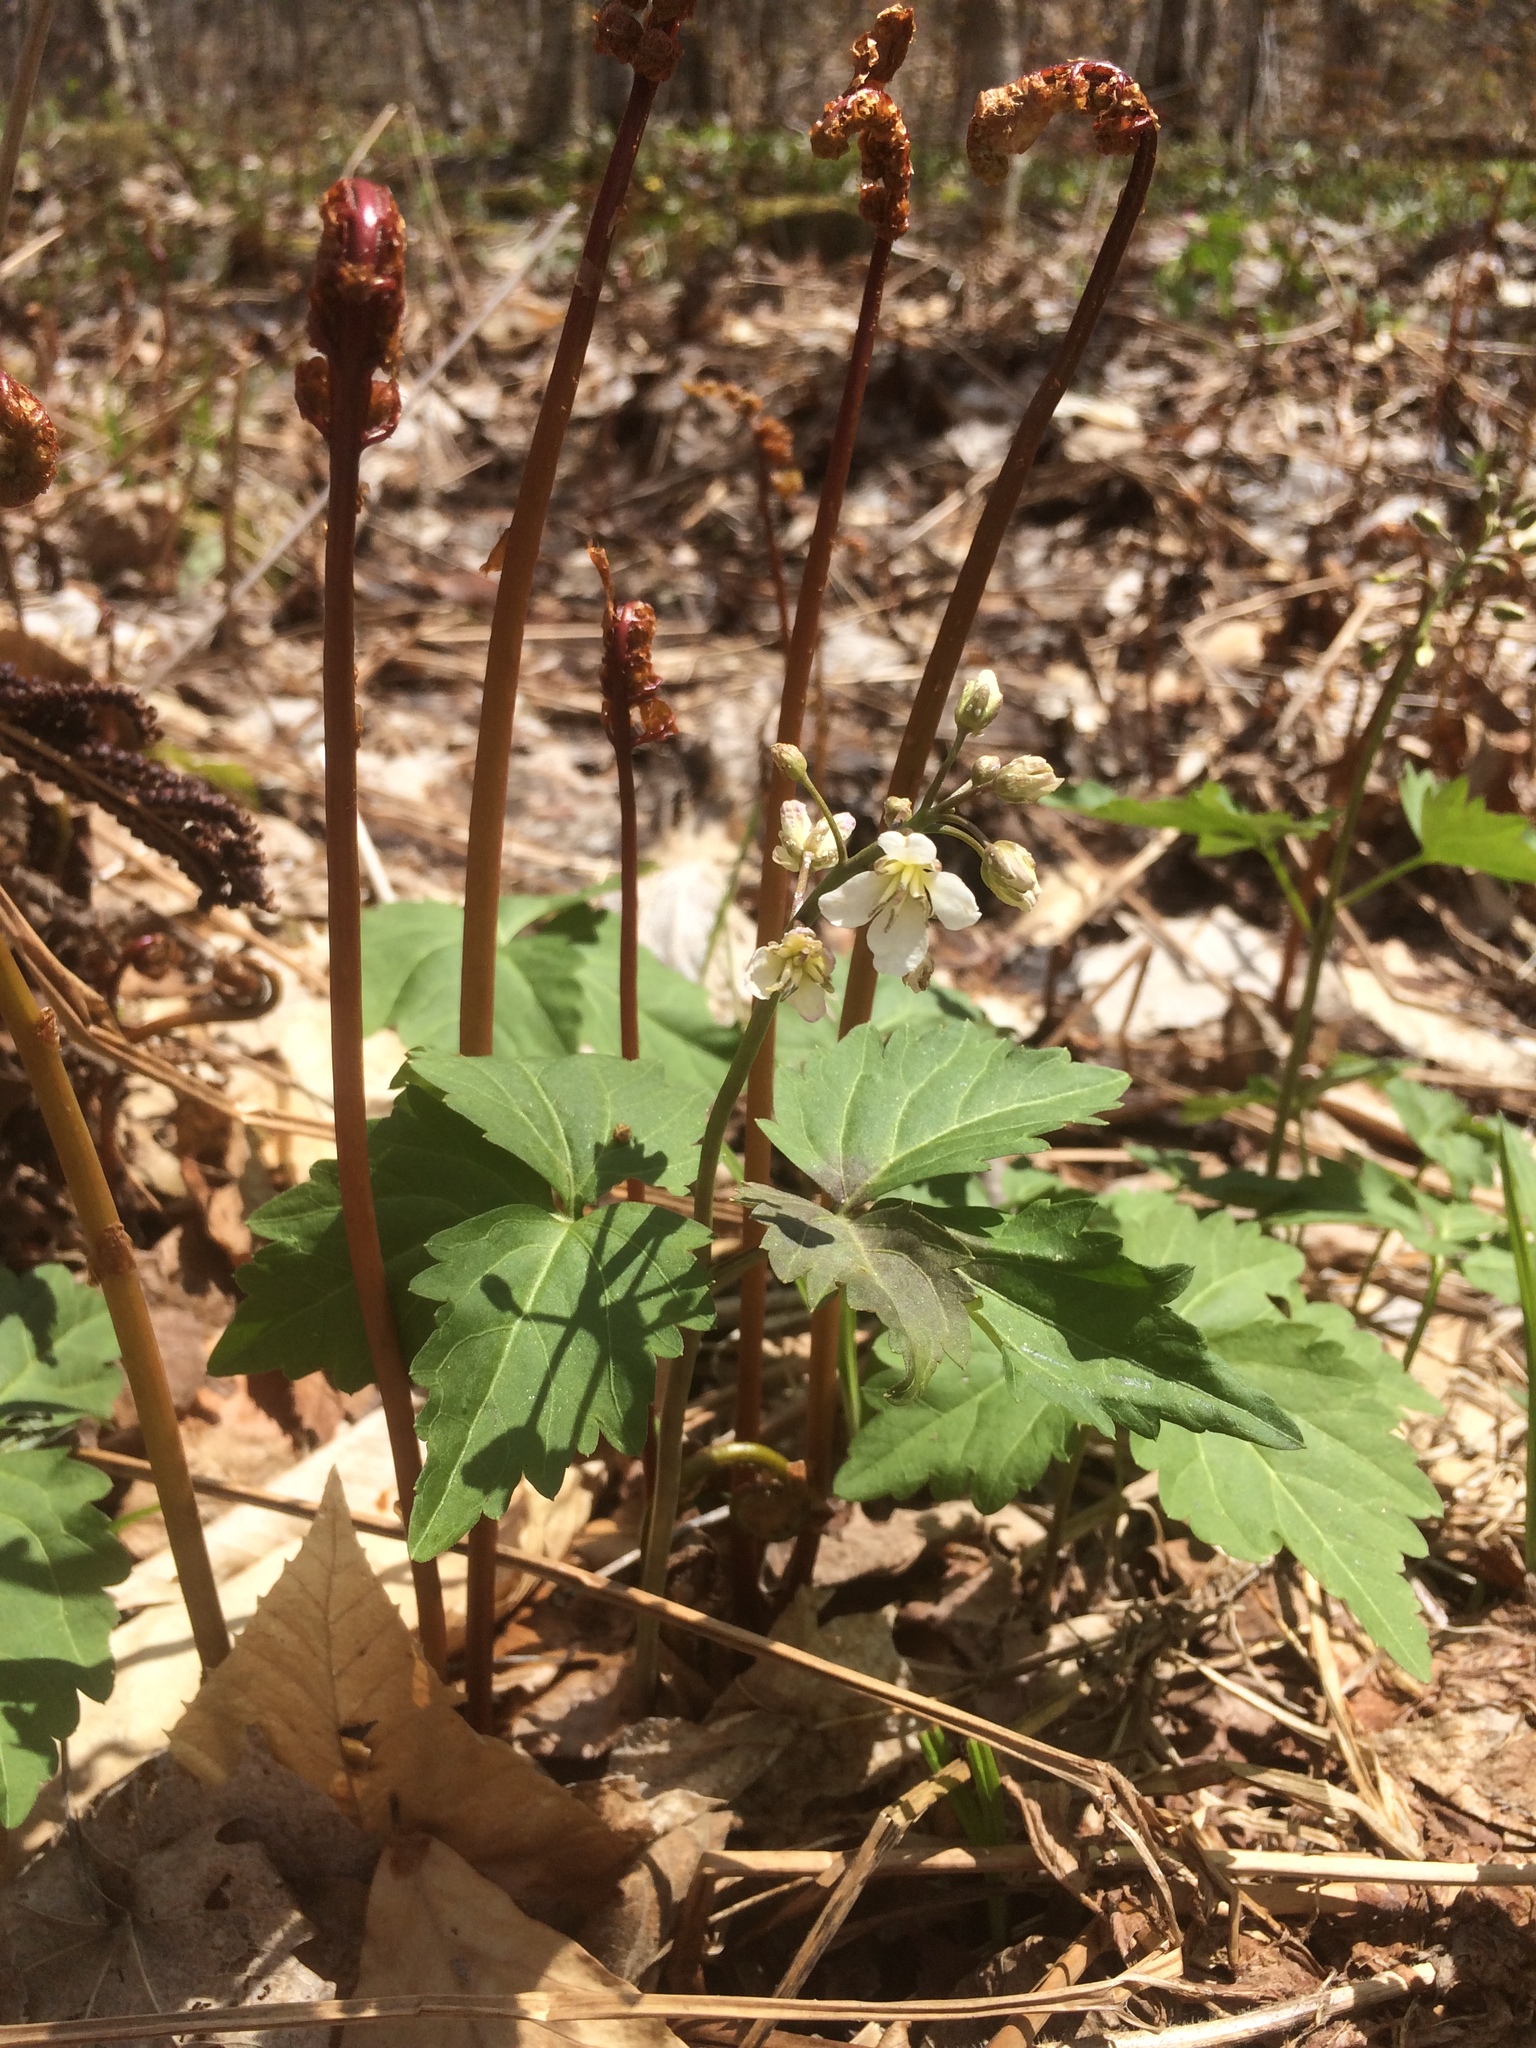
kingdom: Plantae
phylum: Tracheophyta
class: Magnoliopsida
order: Brassicales
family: Brassicaceae
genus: Cardamine
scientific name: Cardamine diphylla
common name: Broad-leaved toothwort
